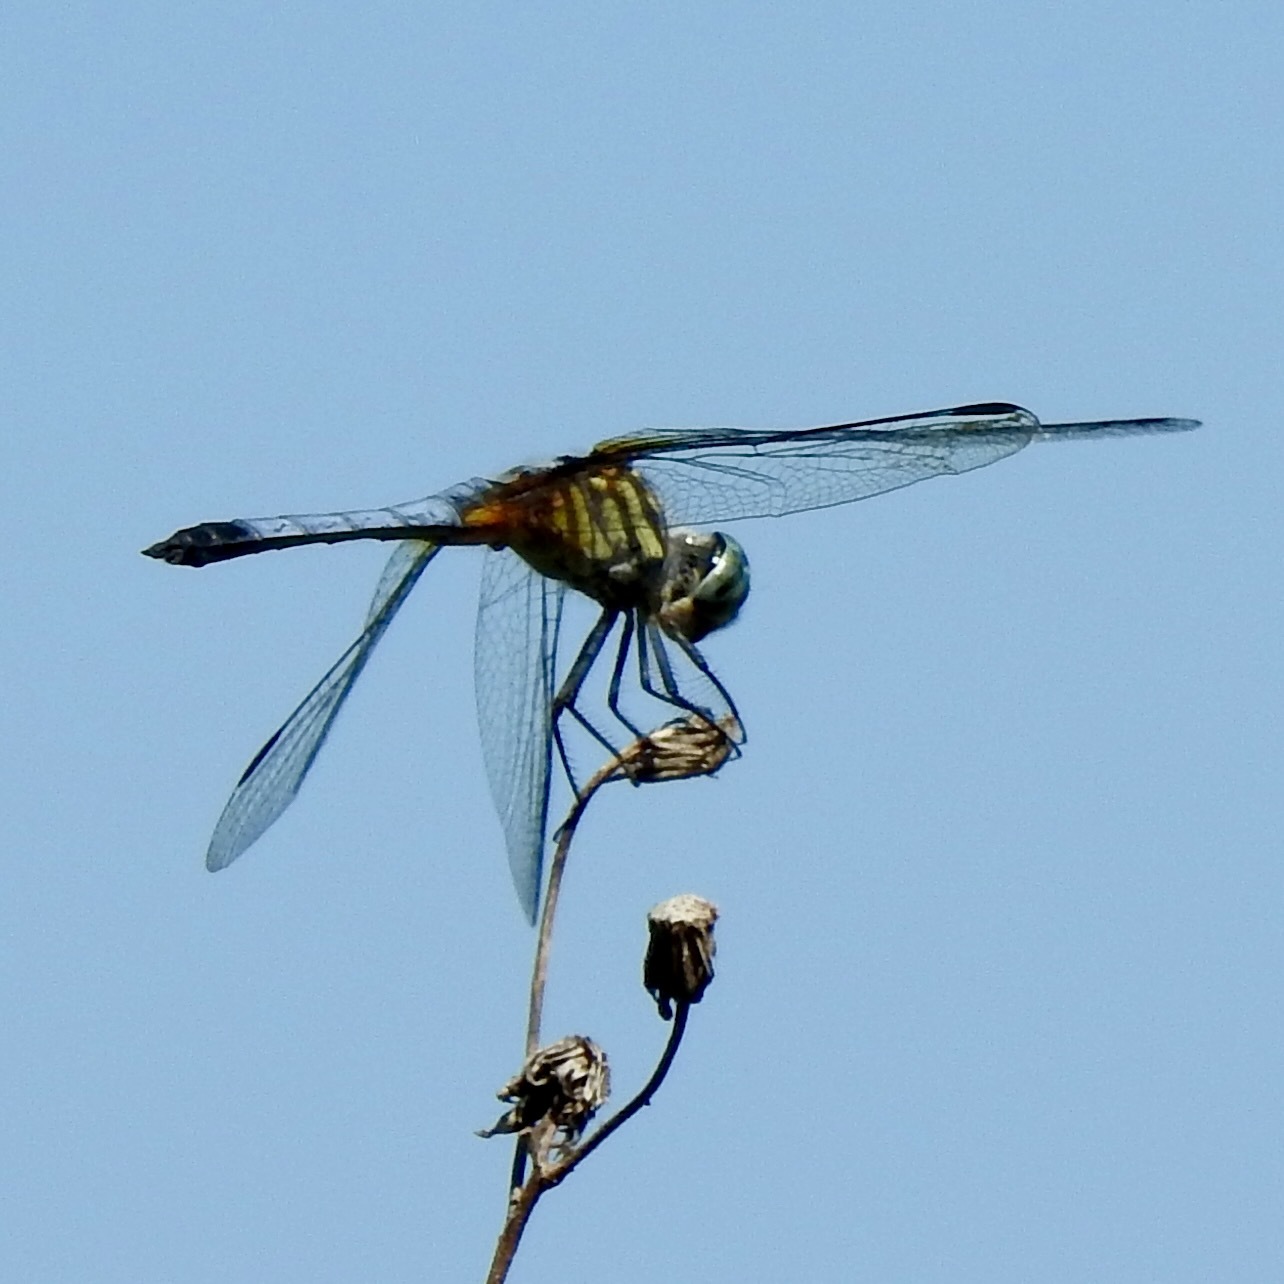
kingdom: Animalia
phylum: Arthropoda
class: Insecta
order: Odonata
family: Libellulidae
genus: Pachydiplax
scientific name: Pachydiplax longipennis
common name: Blue dasher
